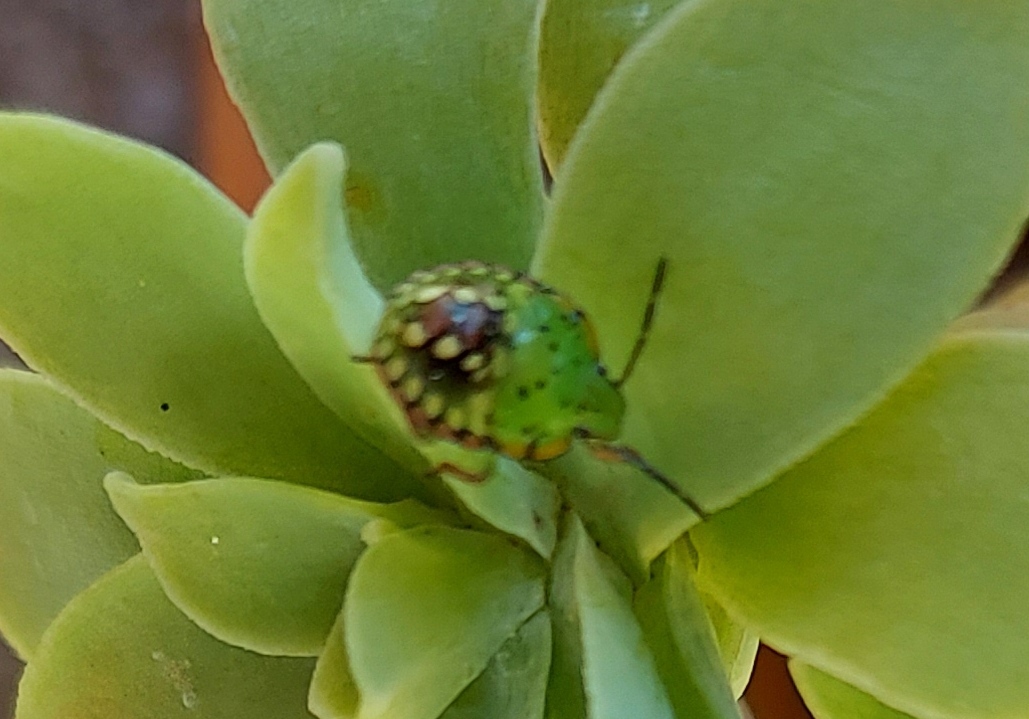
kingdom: Animalia
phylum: Arthropoda
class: Insecta
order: Hemiptera
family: Pentatomidae
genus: Nezara
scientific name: Nezara viridula
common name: Southern green stink bug
